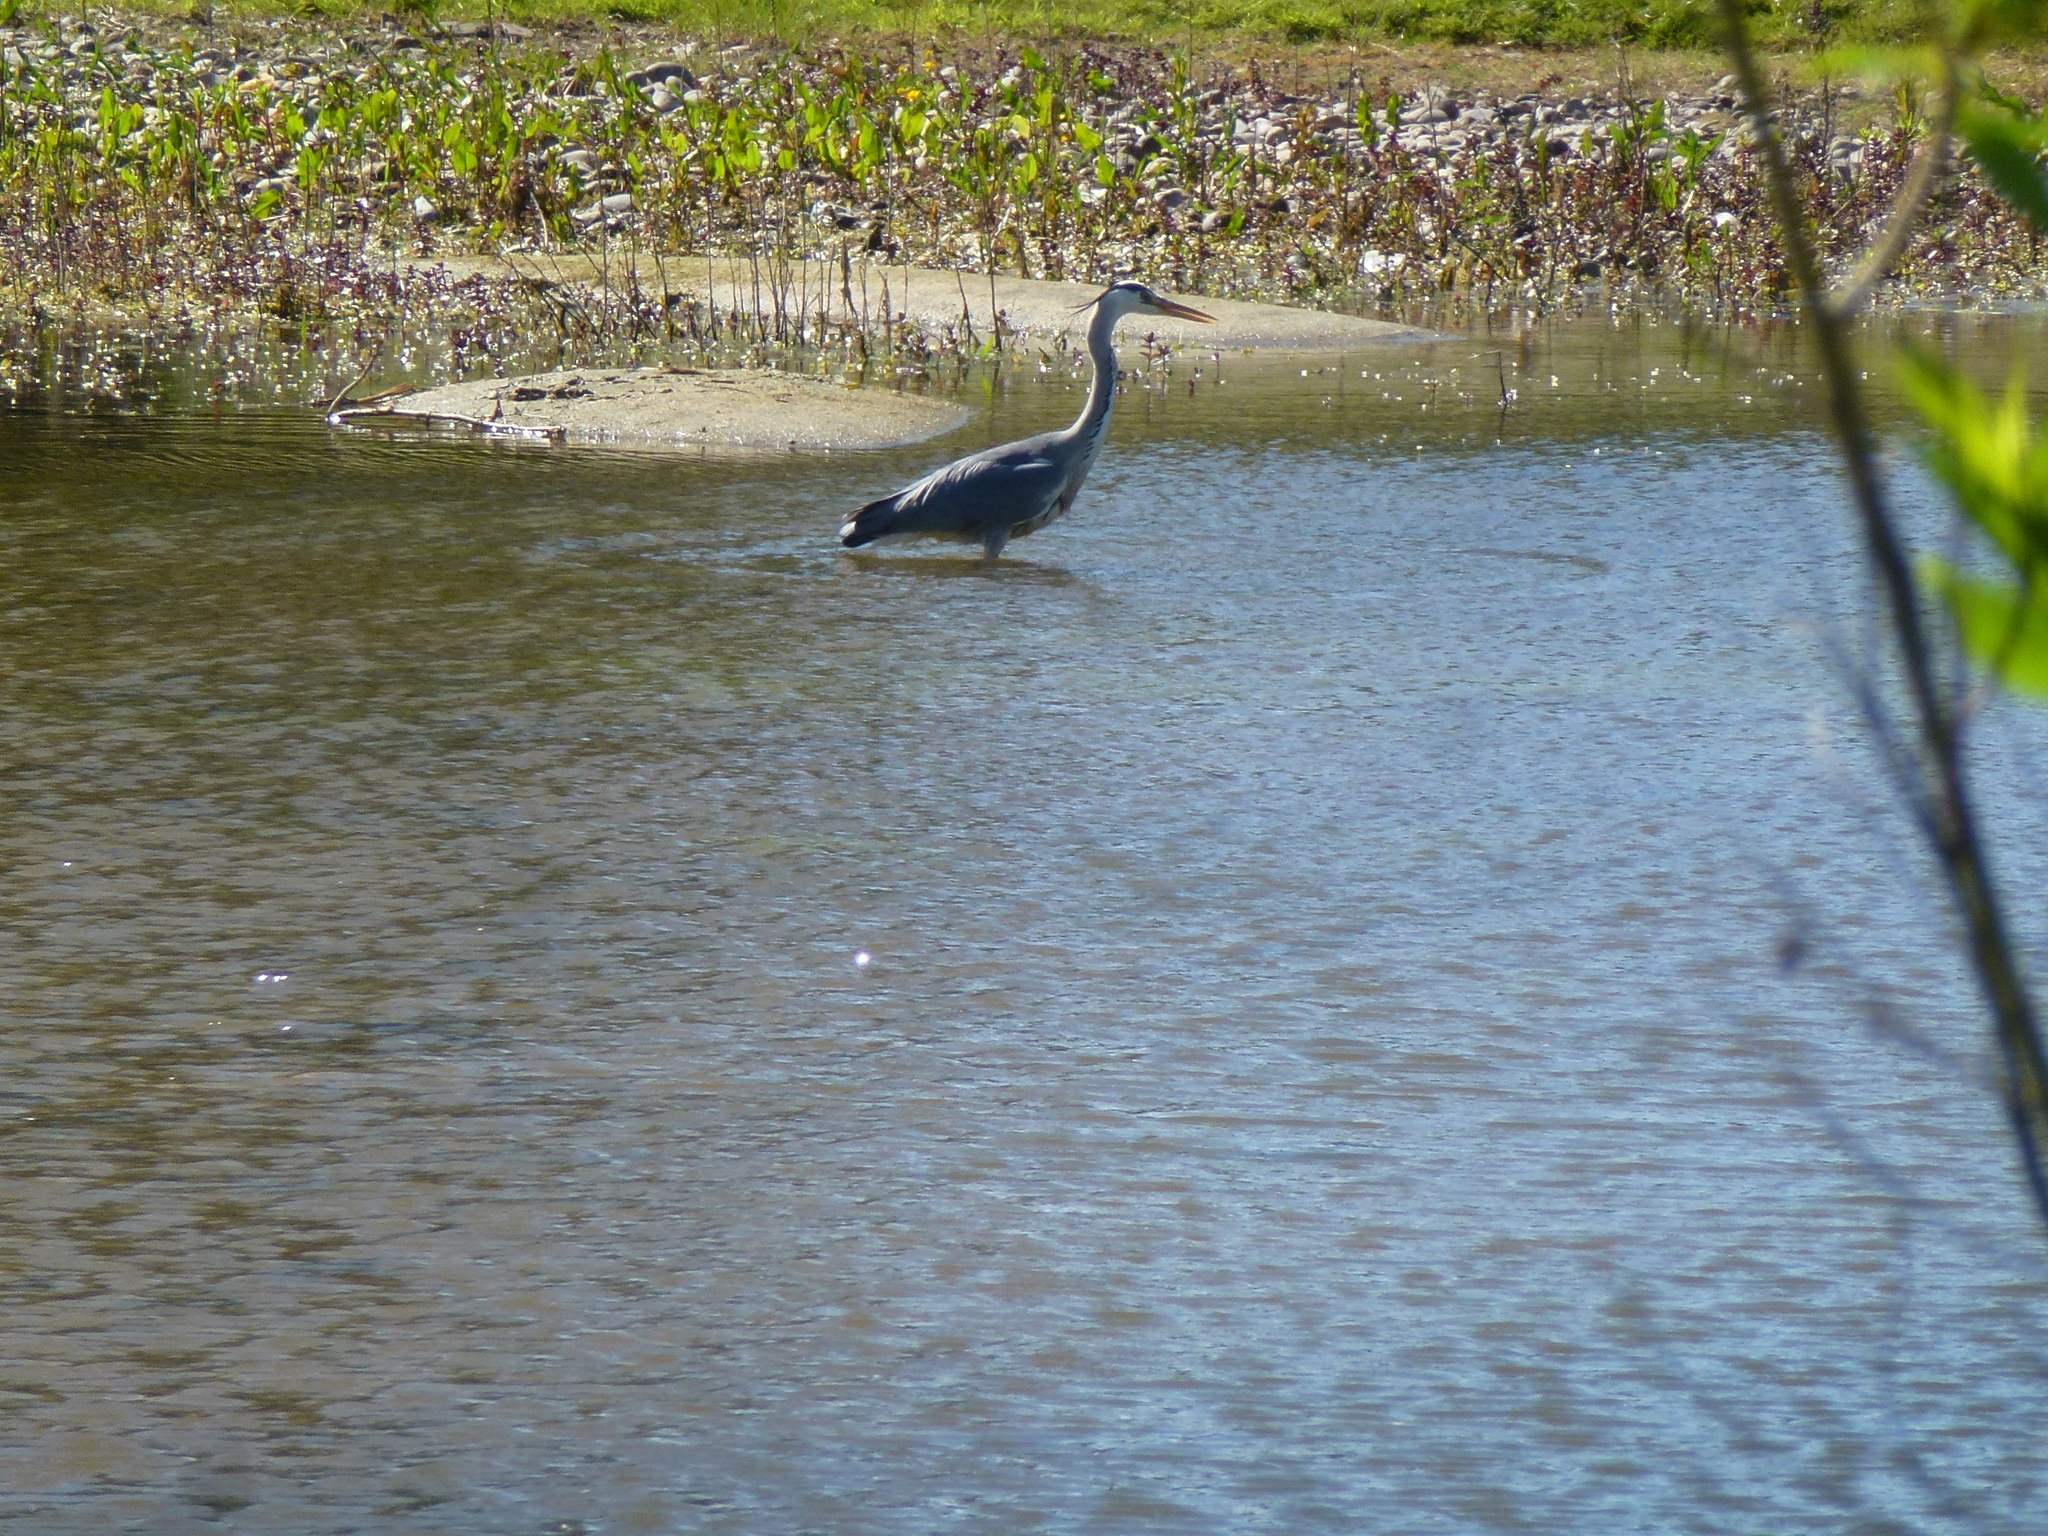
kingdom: Animalia
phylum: Chordata
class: Aves
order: Pelecaniformes
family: Ardeidae
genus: Ardea
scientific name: Ardea cinerea
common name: Grey heron
